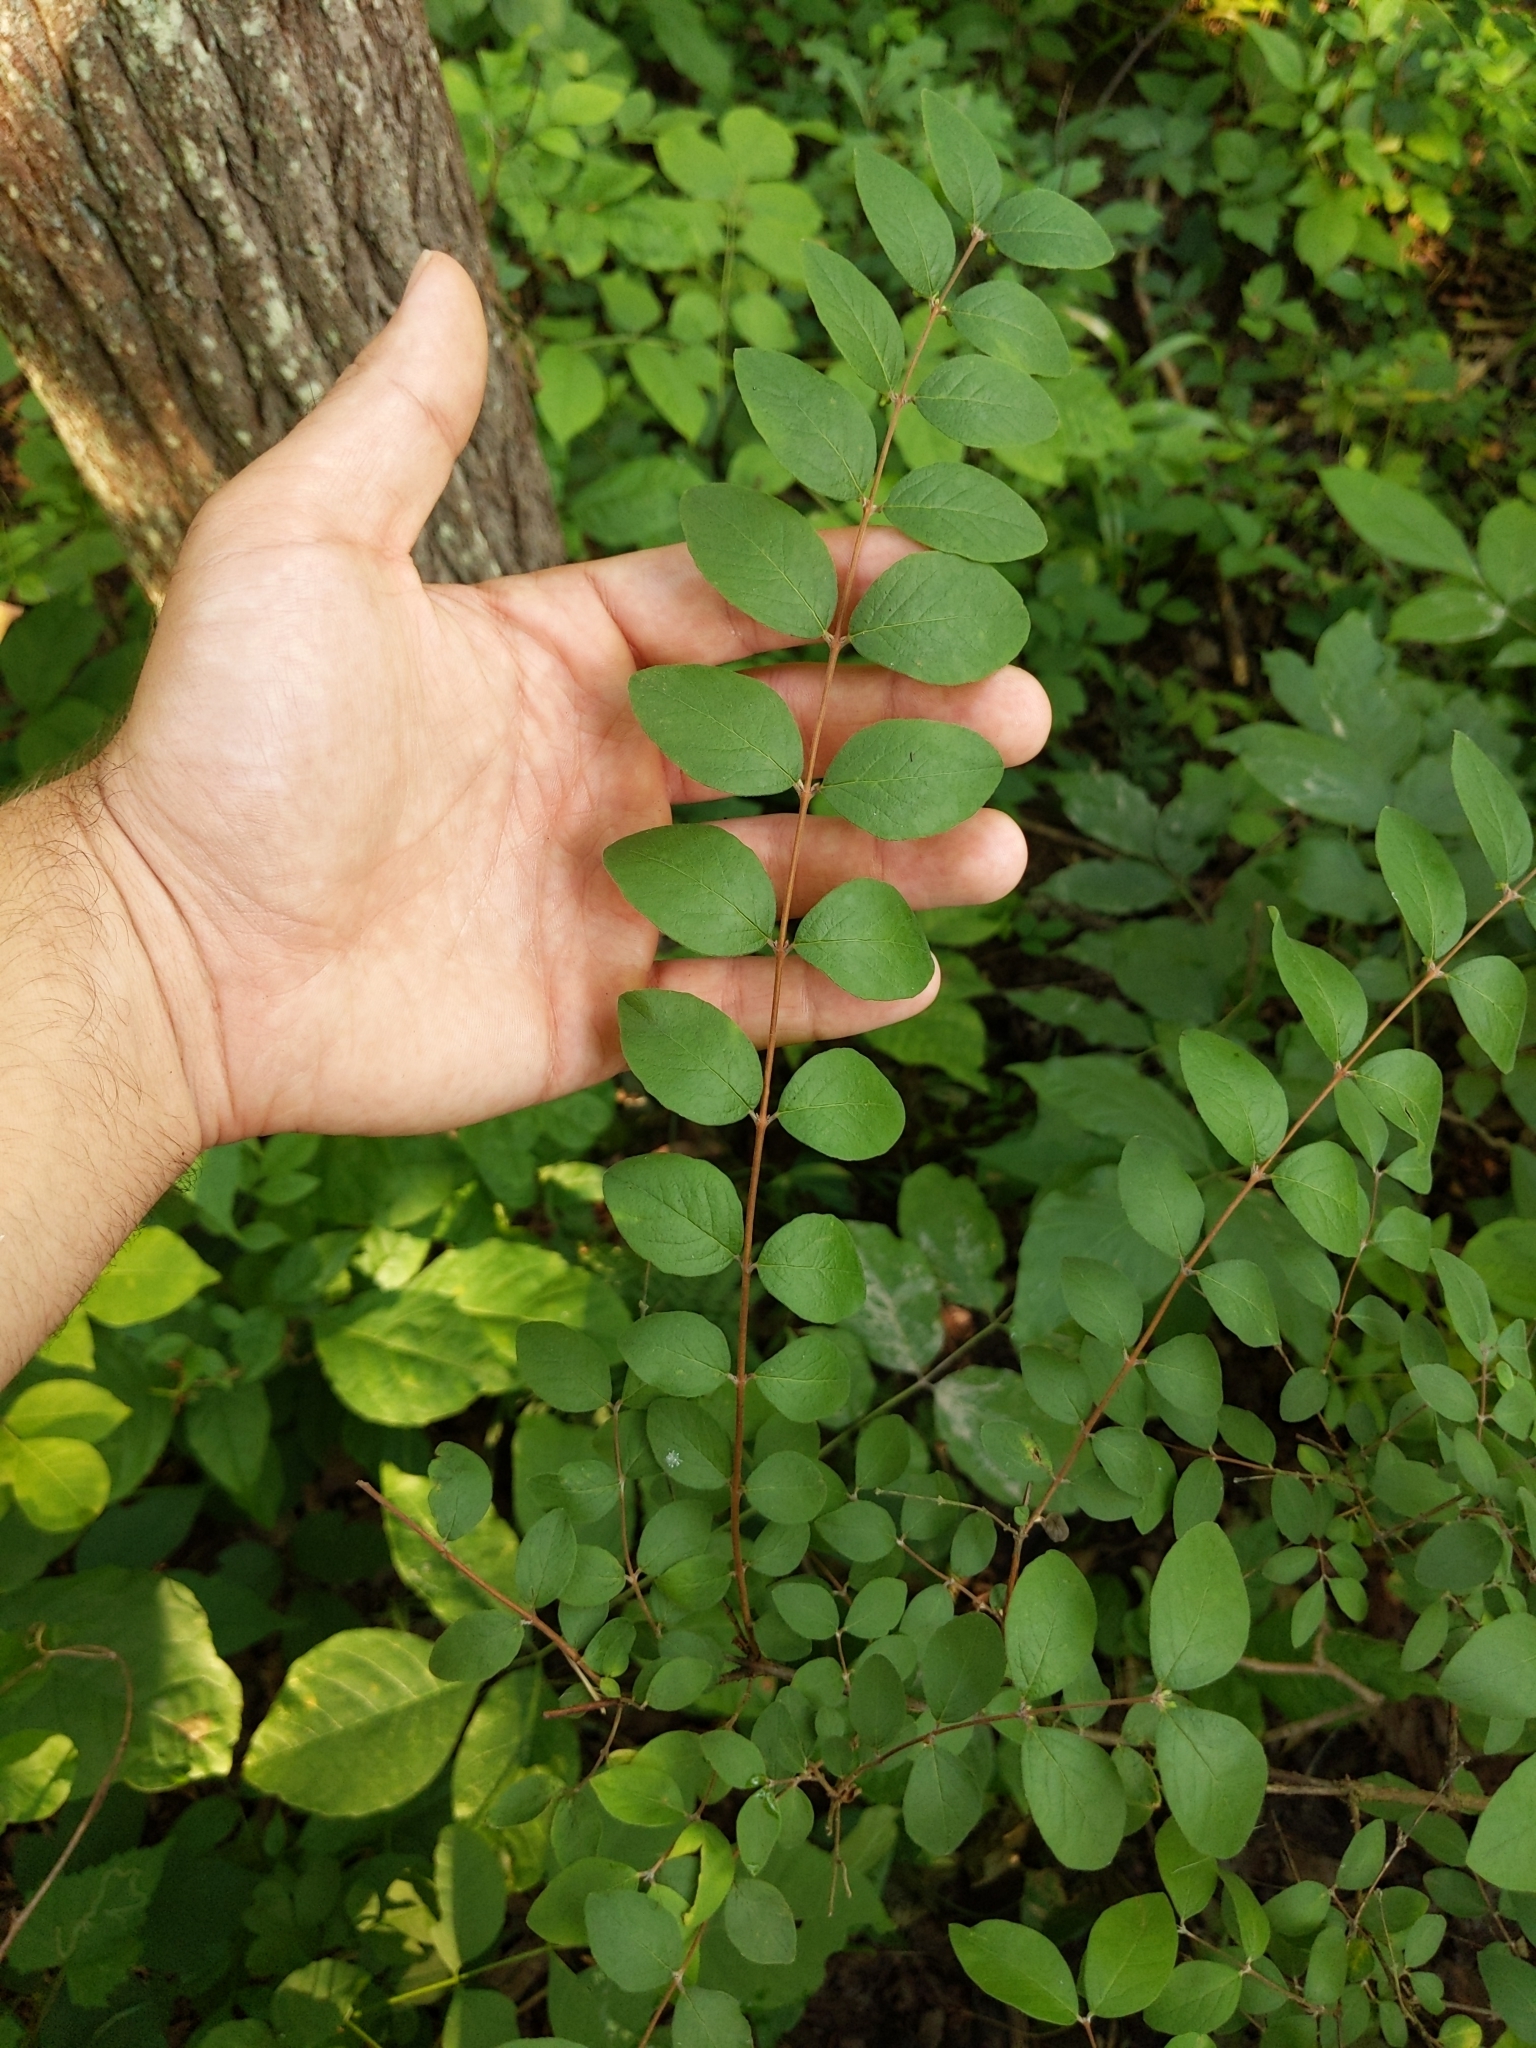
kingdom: Plantae
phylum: Tracheophyta
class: Magnoliopsida
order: Dipsacales
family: Caprifoliaceae
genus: Symphoricarpos
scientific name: Symphoricarpos orbiculatus
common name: Coralberry
